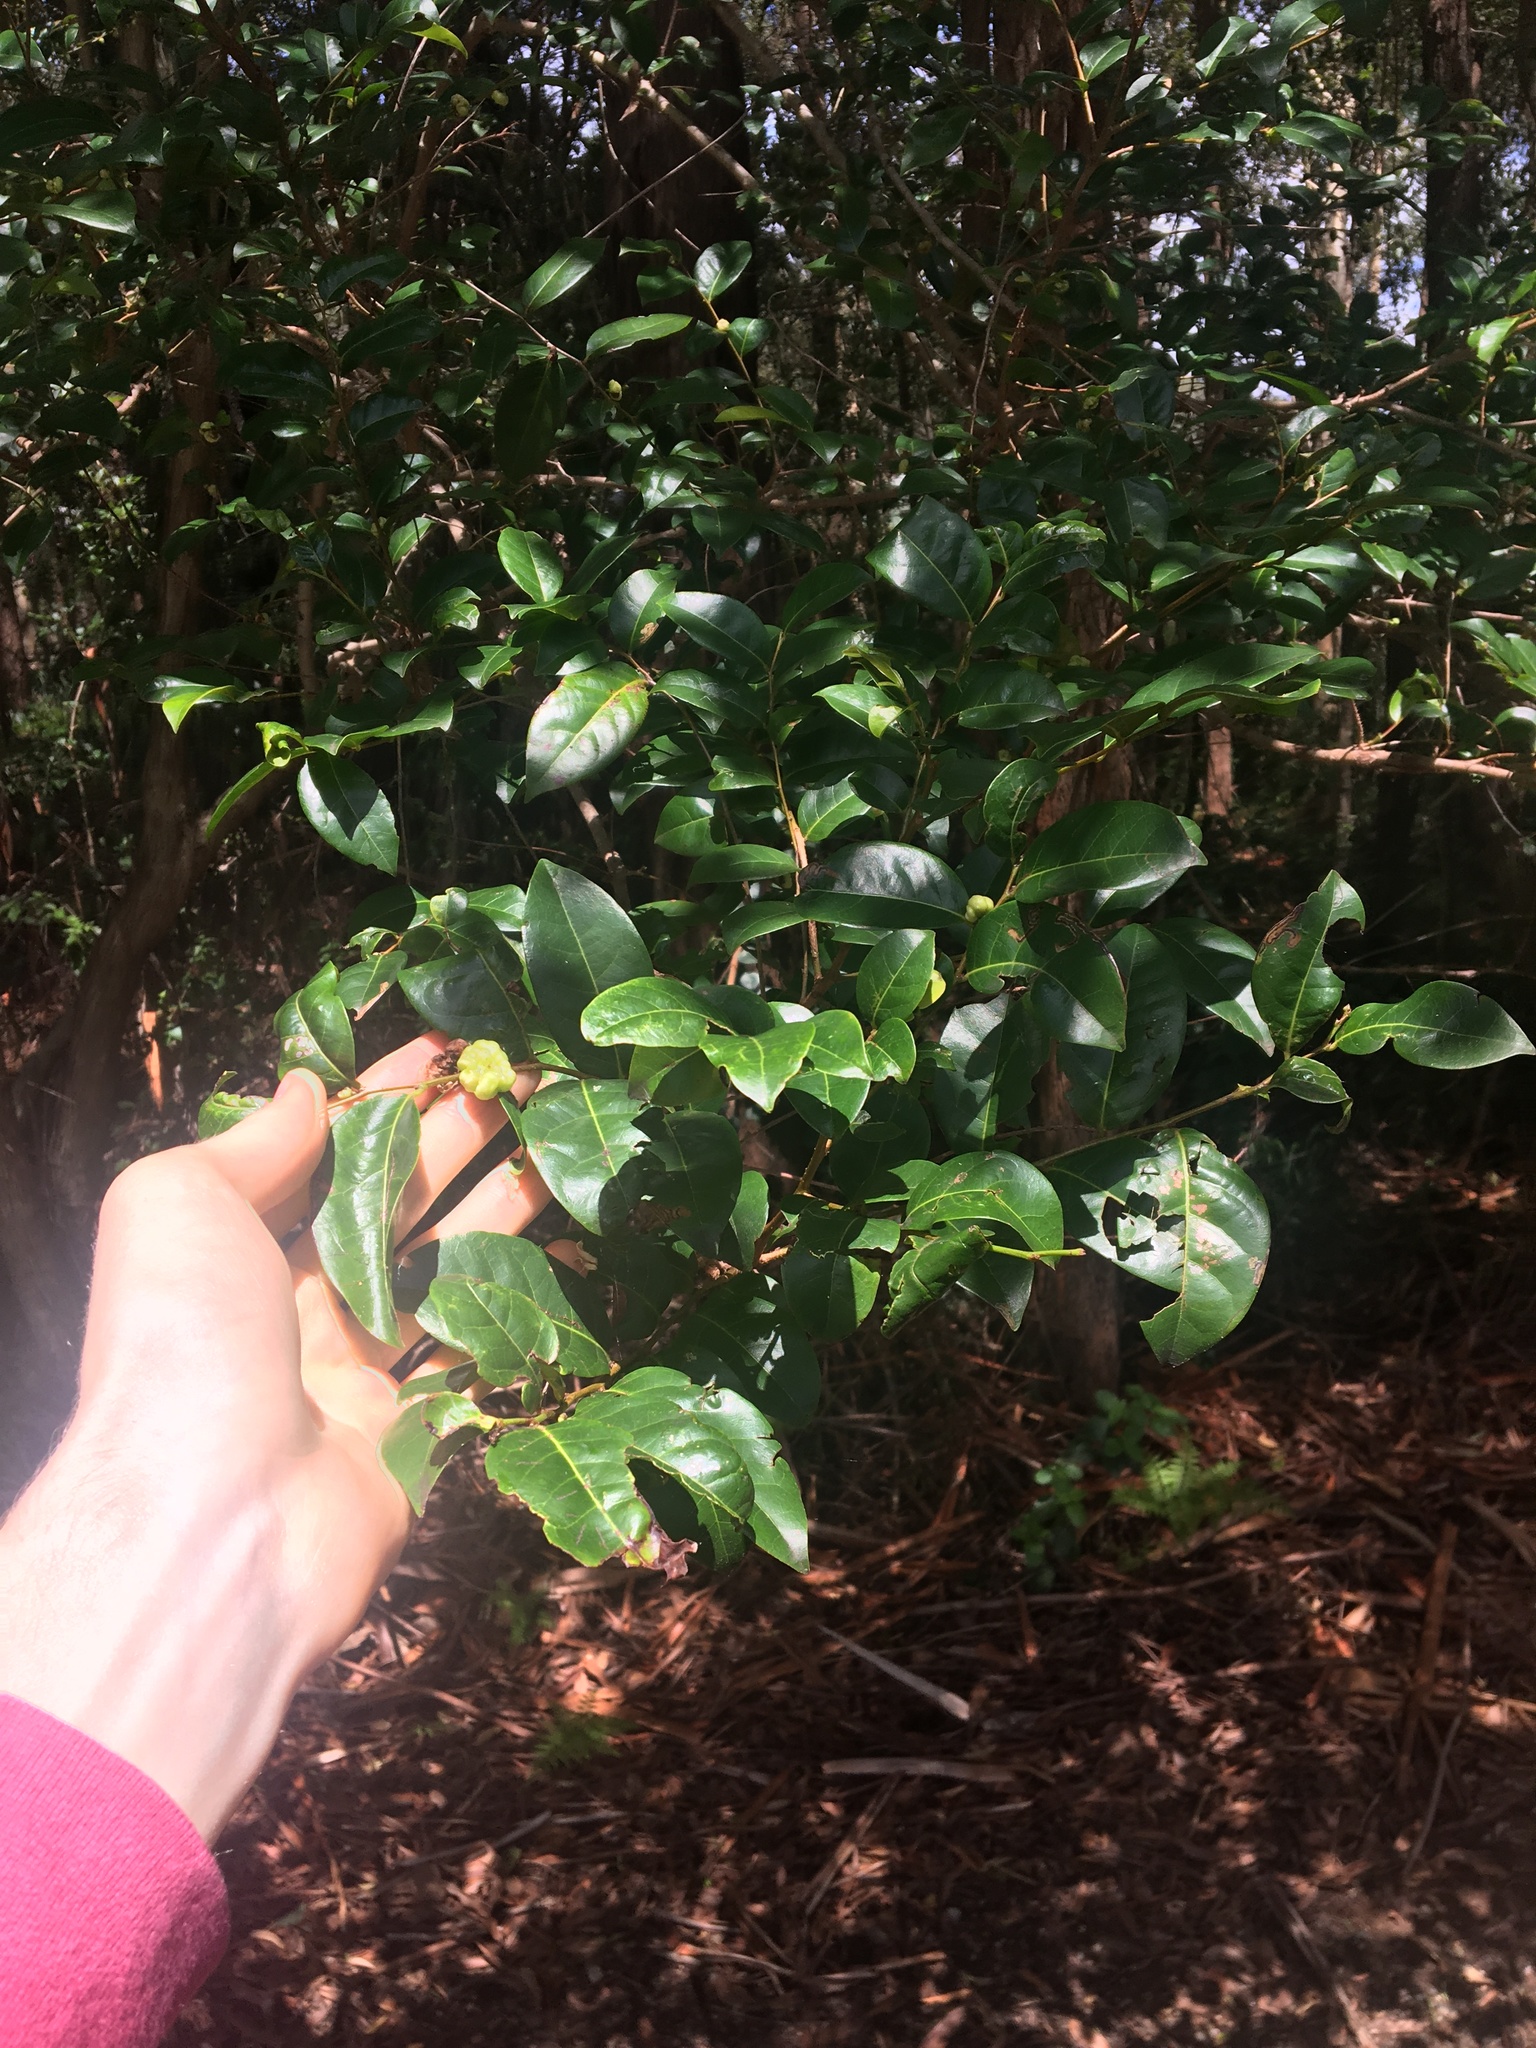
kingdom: Plantae
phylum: Tracheophyta
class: Magnoliopsida
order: Malpighiales
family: Phyllanthaceae
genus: Glochidion
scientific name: Glochidion ferdinandi
